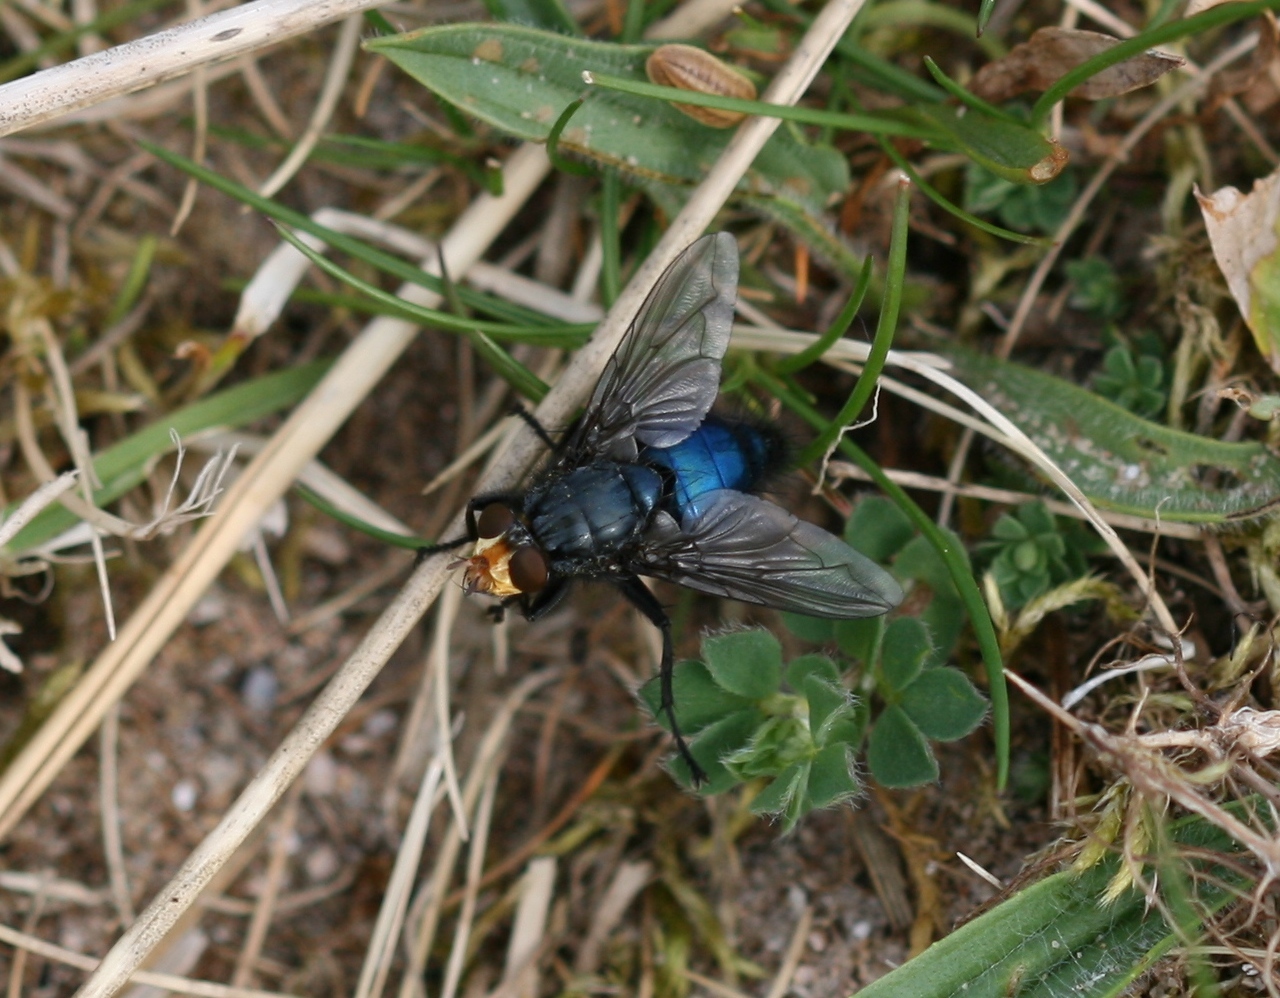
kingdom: Animalia
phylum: Arthropoda
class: Insecta
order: Diptera
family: Calliphoridae
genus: Cynomya
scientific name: Cynomya mortuorum
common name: Bluebottle blow fly
